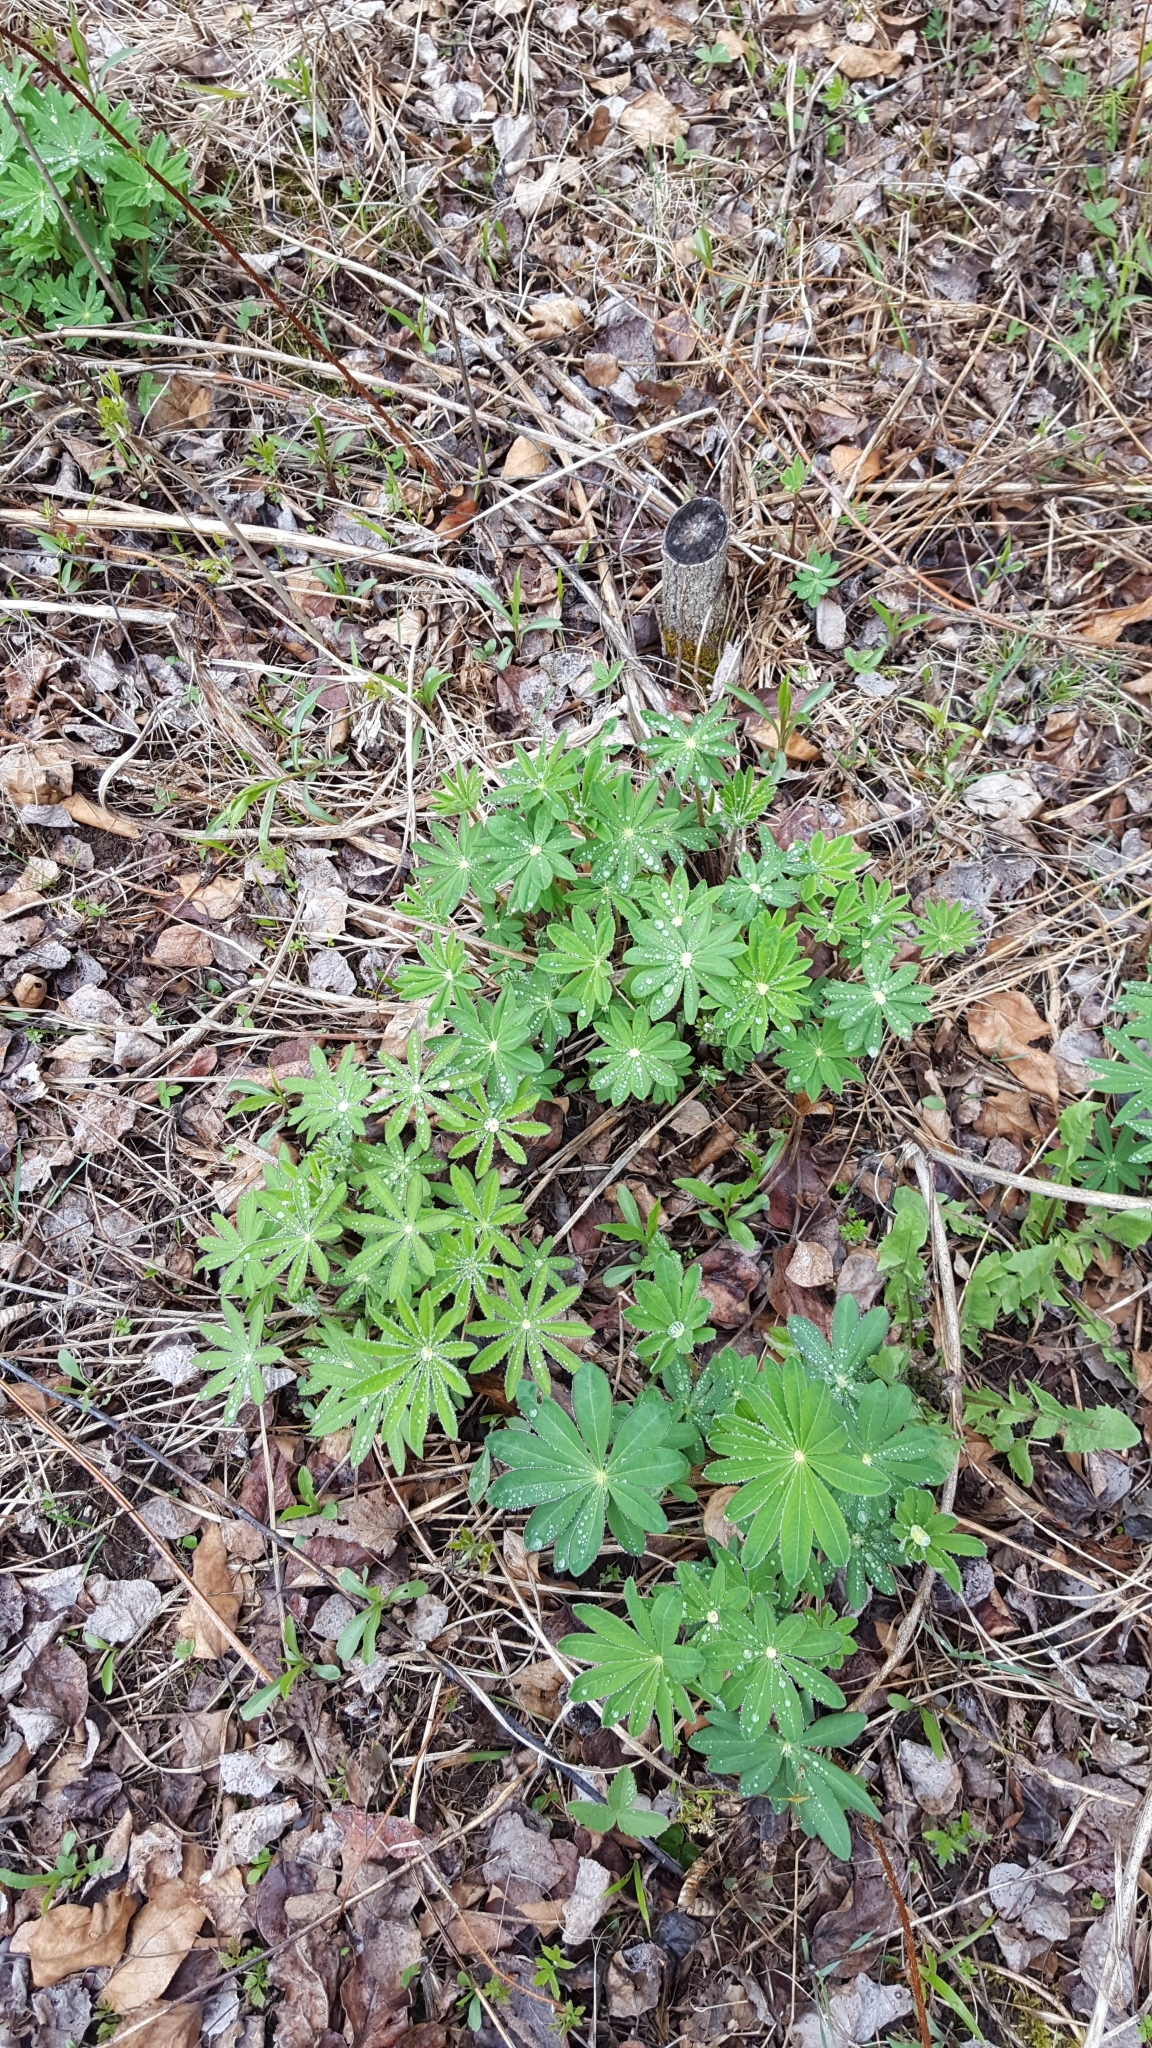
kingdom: Plantae
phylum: Tracheophyta
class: Magnoliopsida
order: Fabales
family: Fabaceae
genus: Lupinus
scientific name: Lupinus polyphyllus
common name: Garden lupin
